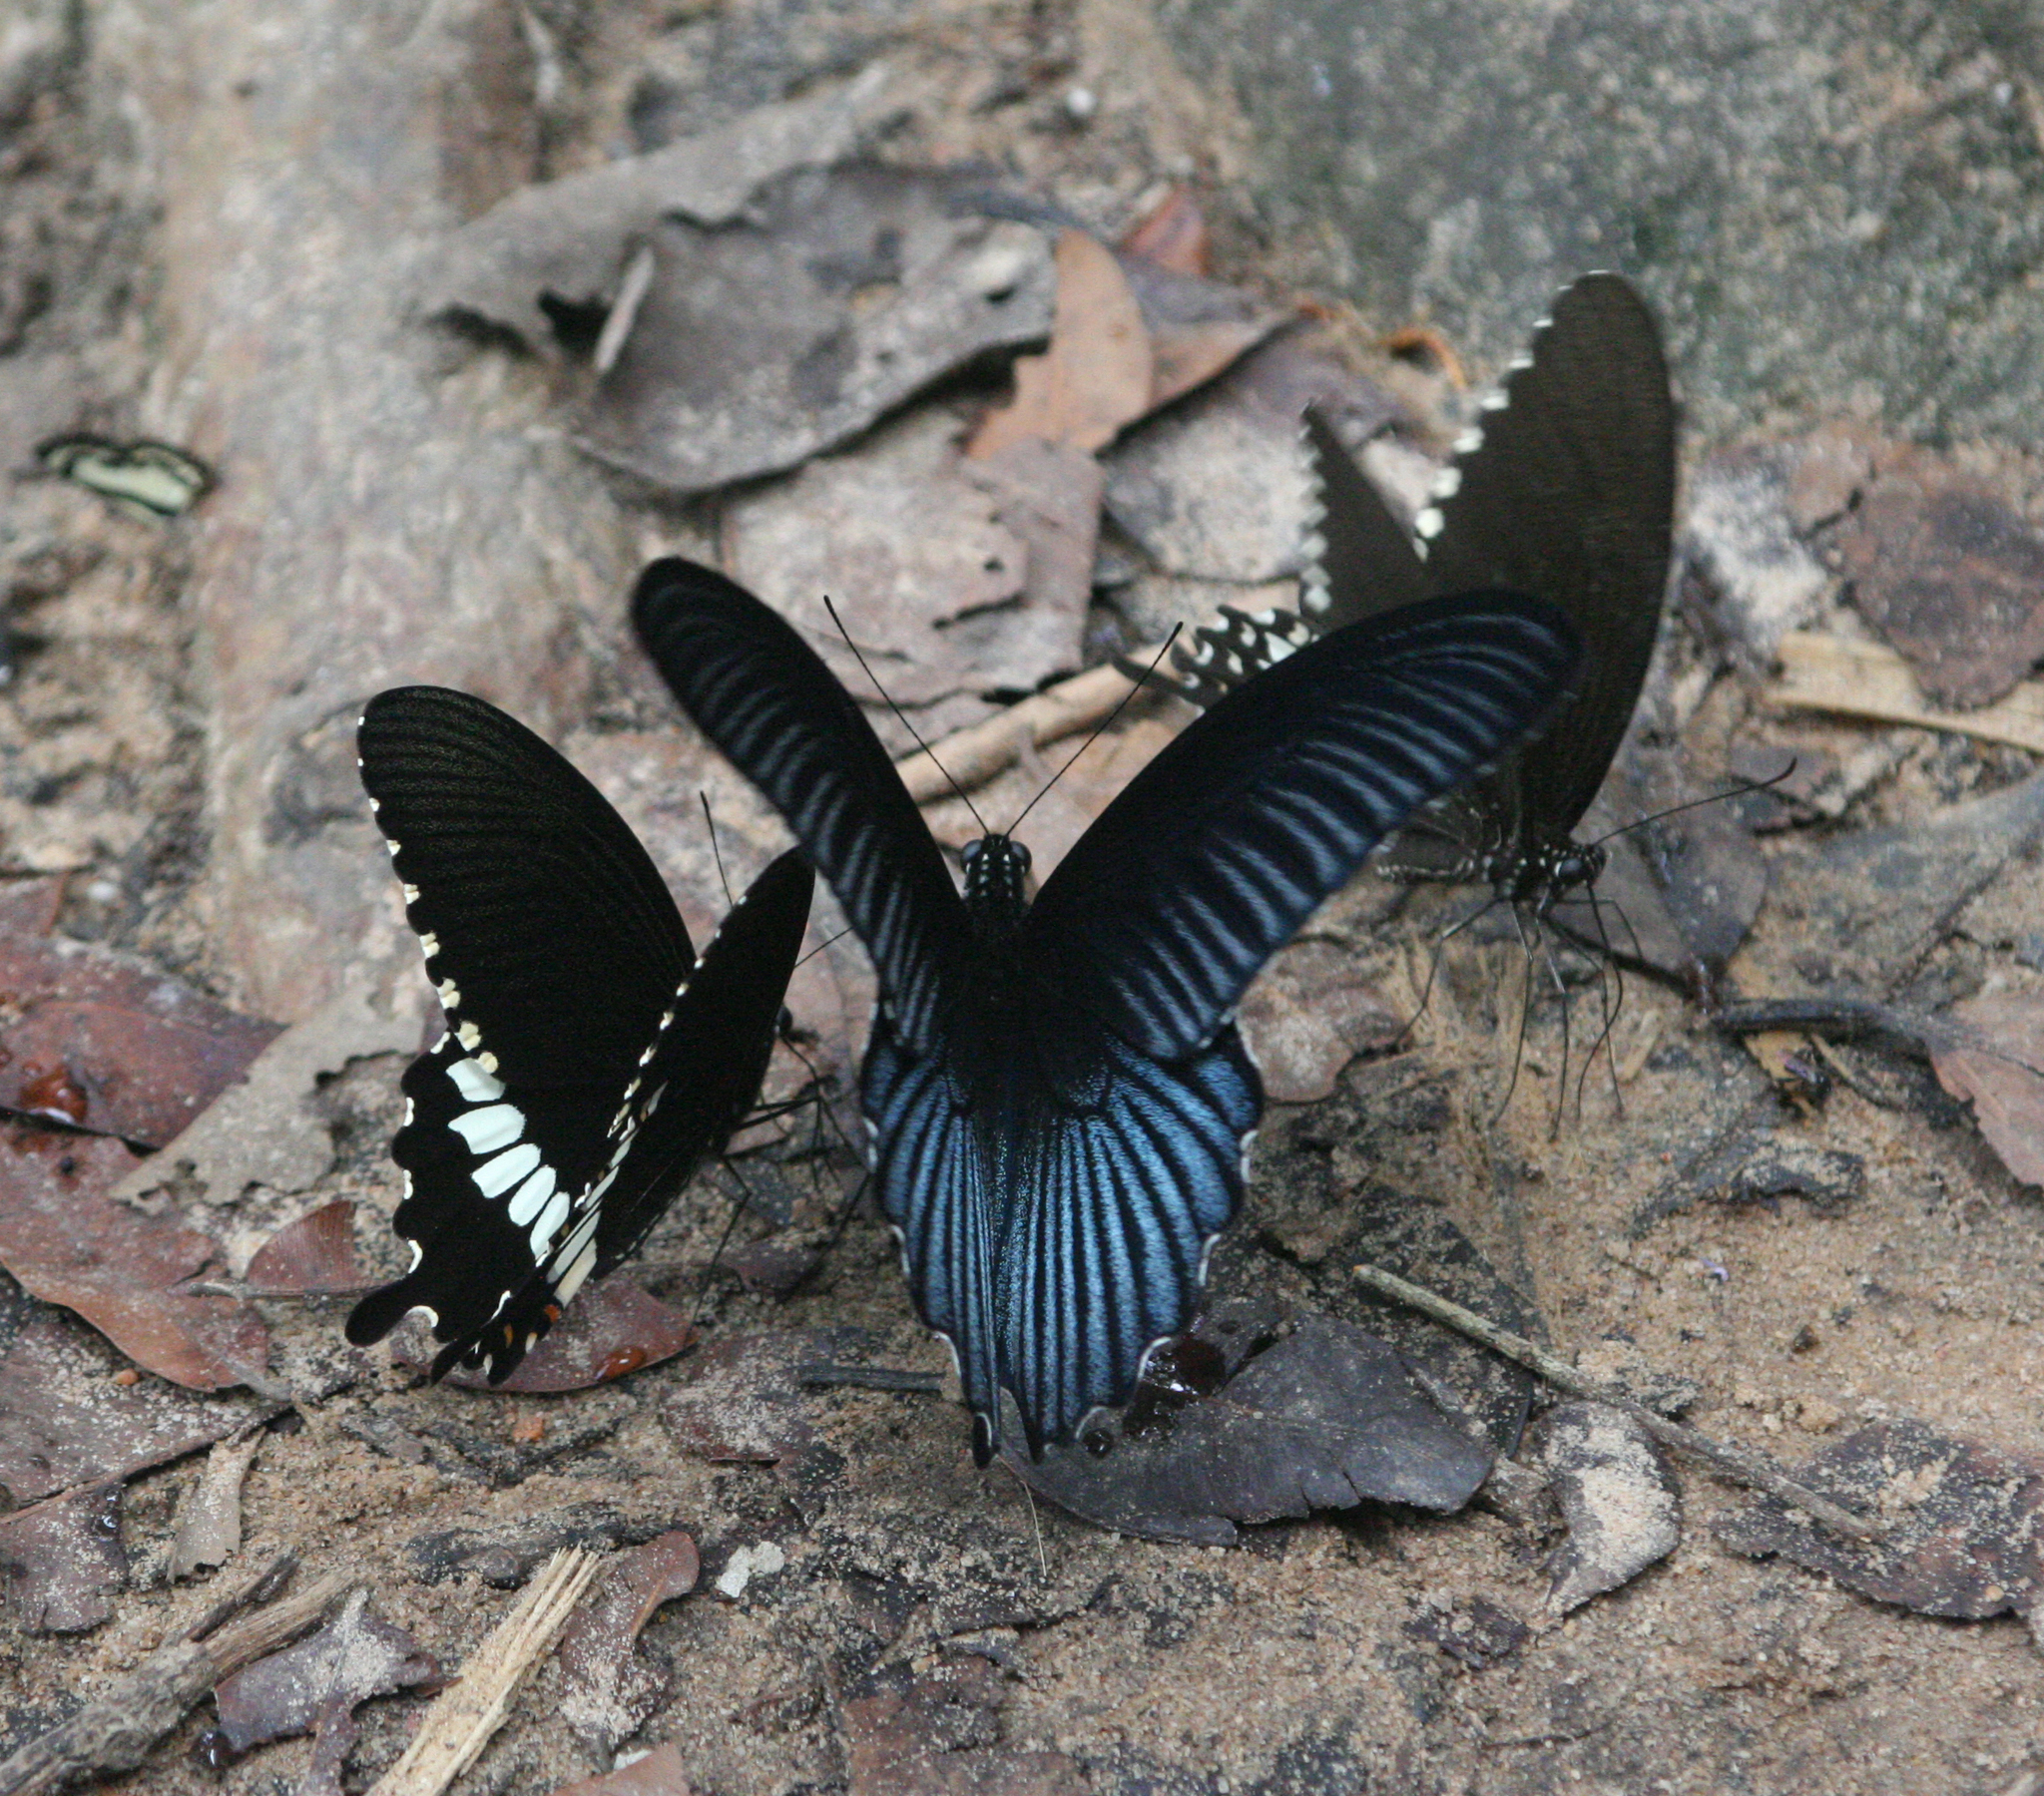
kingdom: Animalia
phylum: Arthropoda
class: Insecta
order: Lepidoptera
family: Papilionidae
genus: Papilio
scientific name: Papilio memnon
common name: Great mormon
